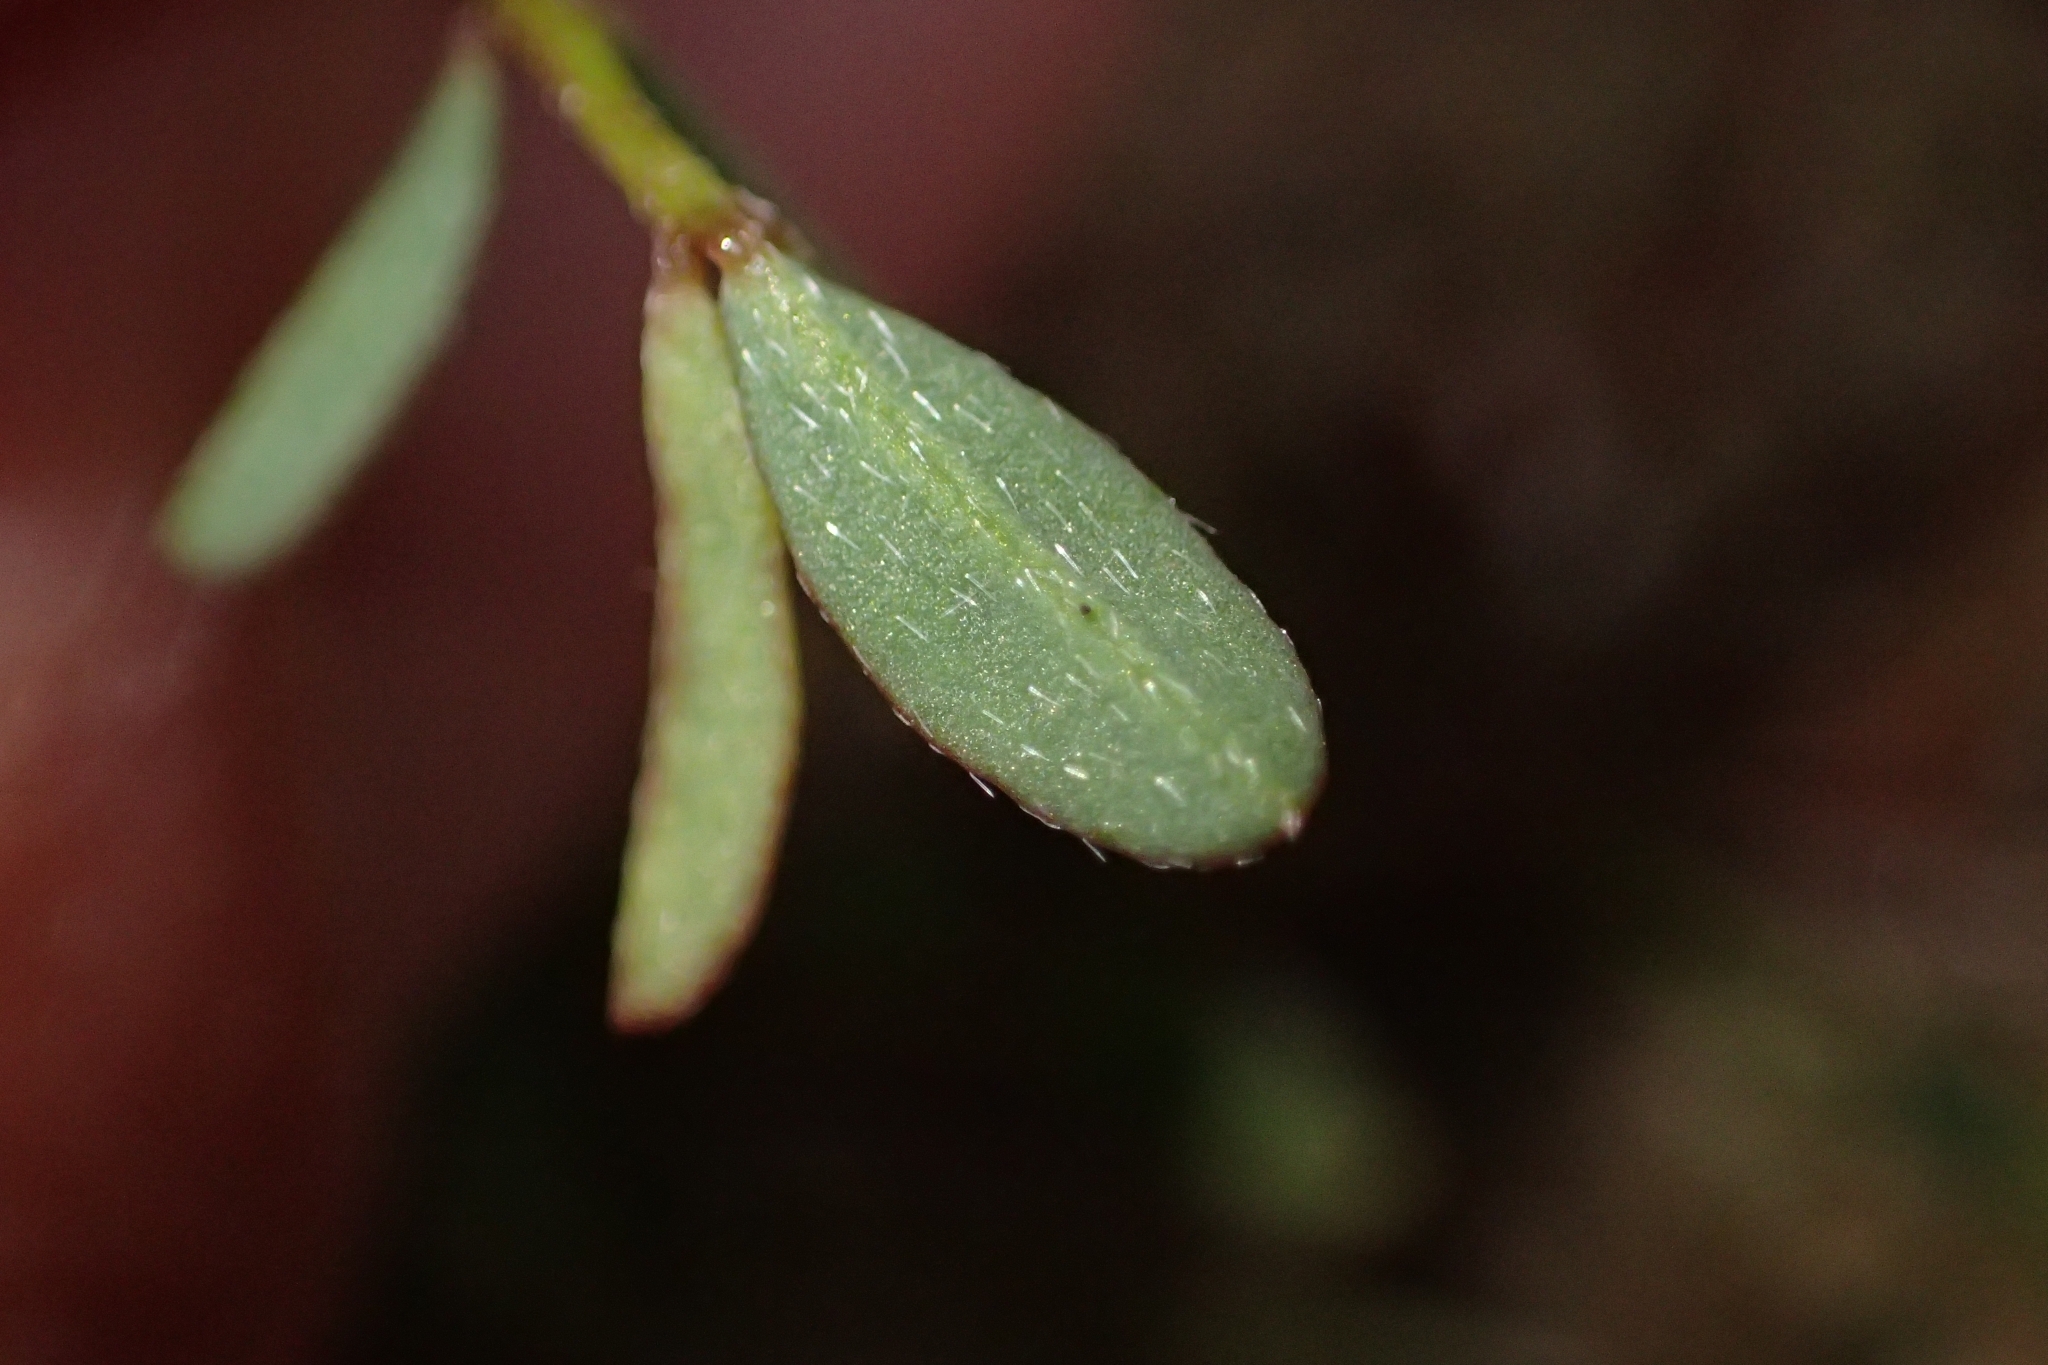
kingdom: Plantae
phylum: Tracheophyta
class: Magnoliopsida
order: Fabales
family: Fabaceae
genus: Ornithopus
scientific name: Ornithopus pinnatus
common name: Orange bird's-foot
